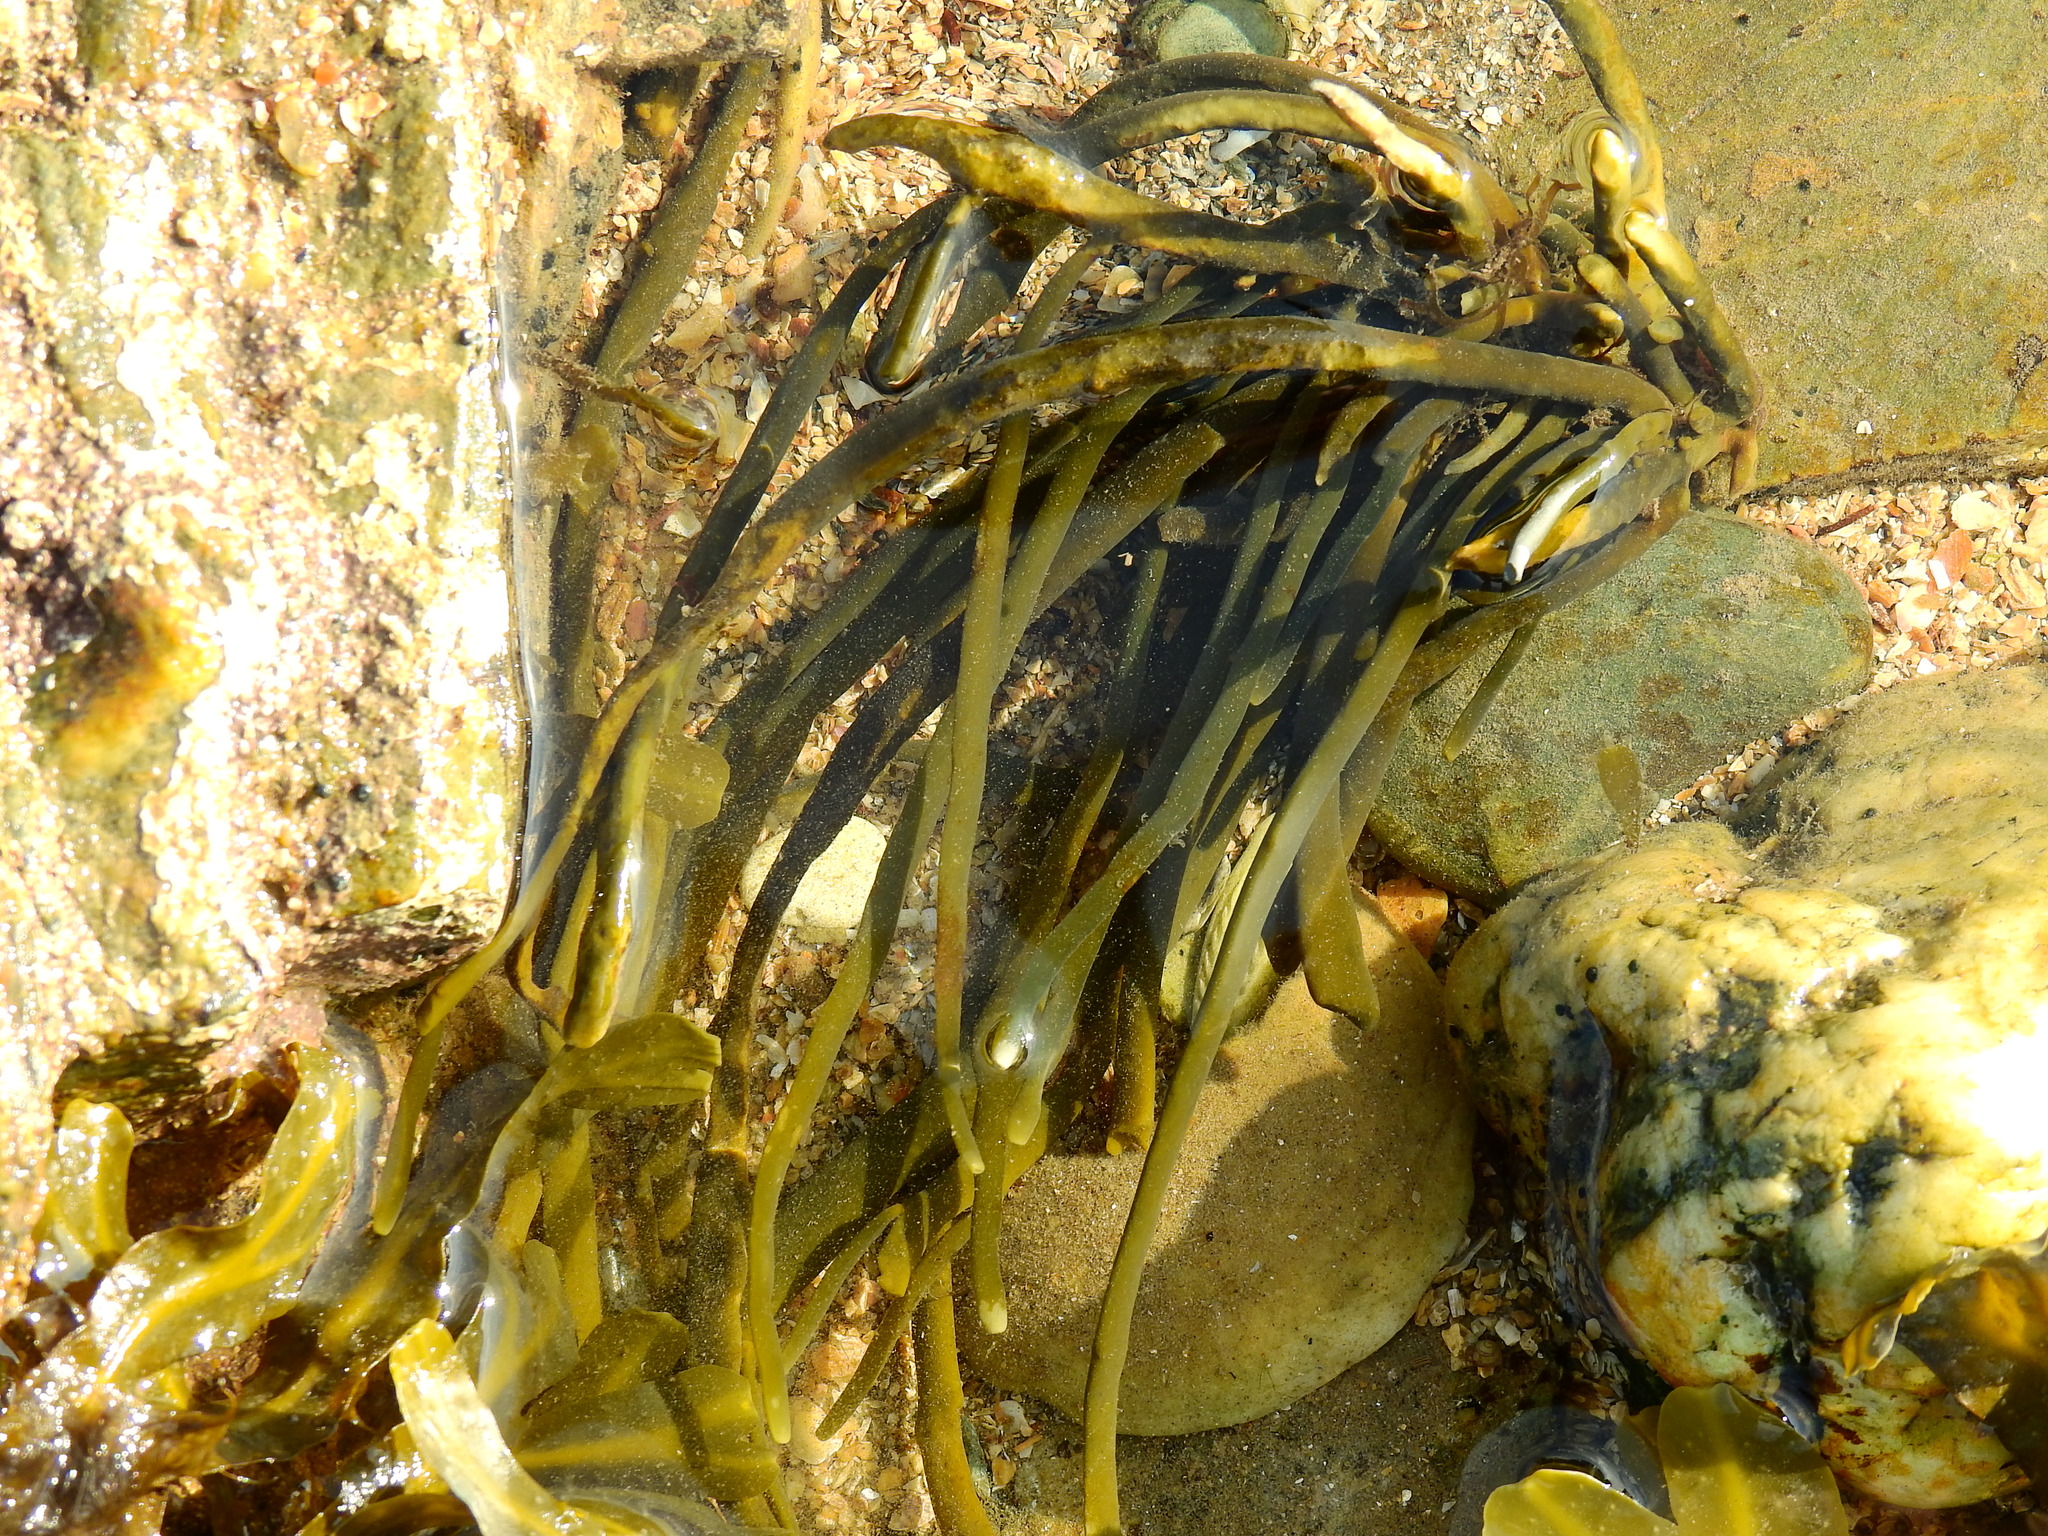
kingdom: Chromista
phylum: Ochrophyta
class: Phaeophyceae
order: Fucales
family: Fucaceae
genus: Ascophyllum
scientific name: Ascophyllum nodosum
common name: Knotted wrack
